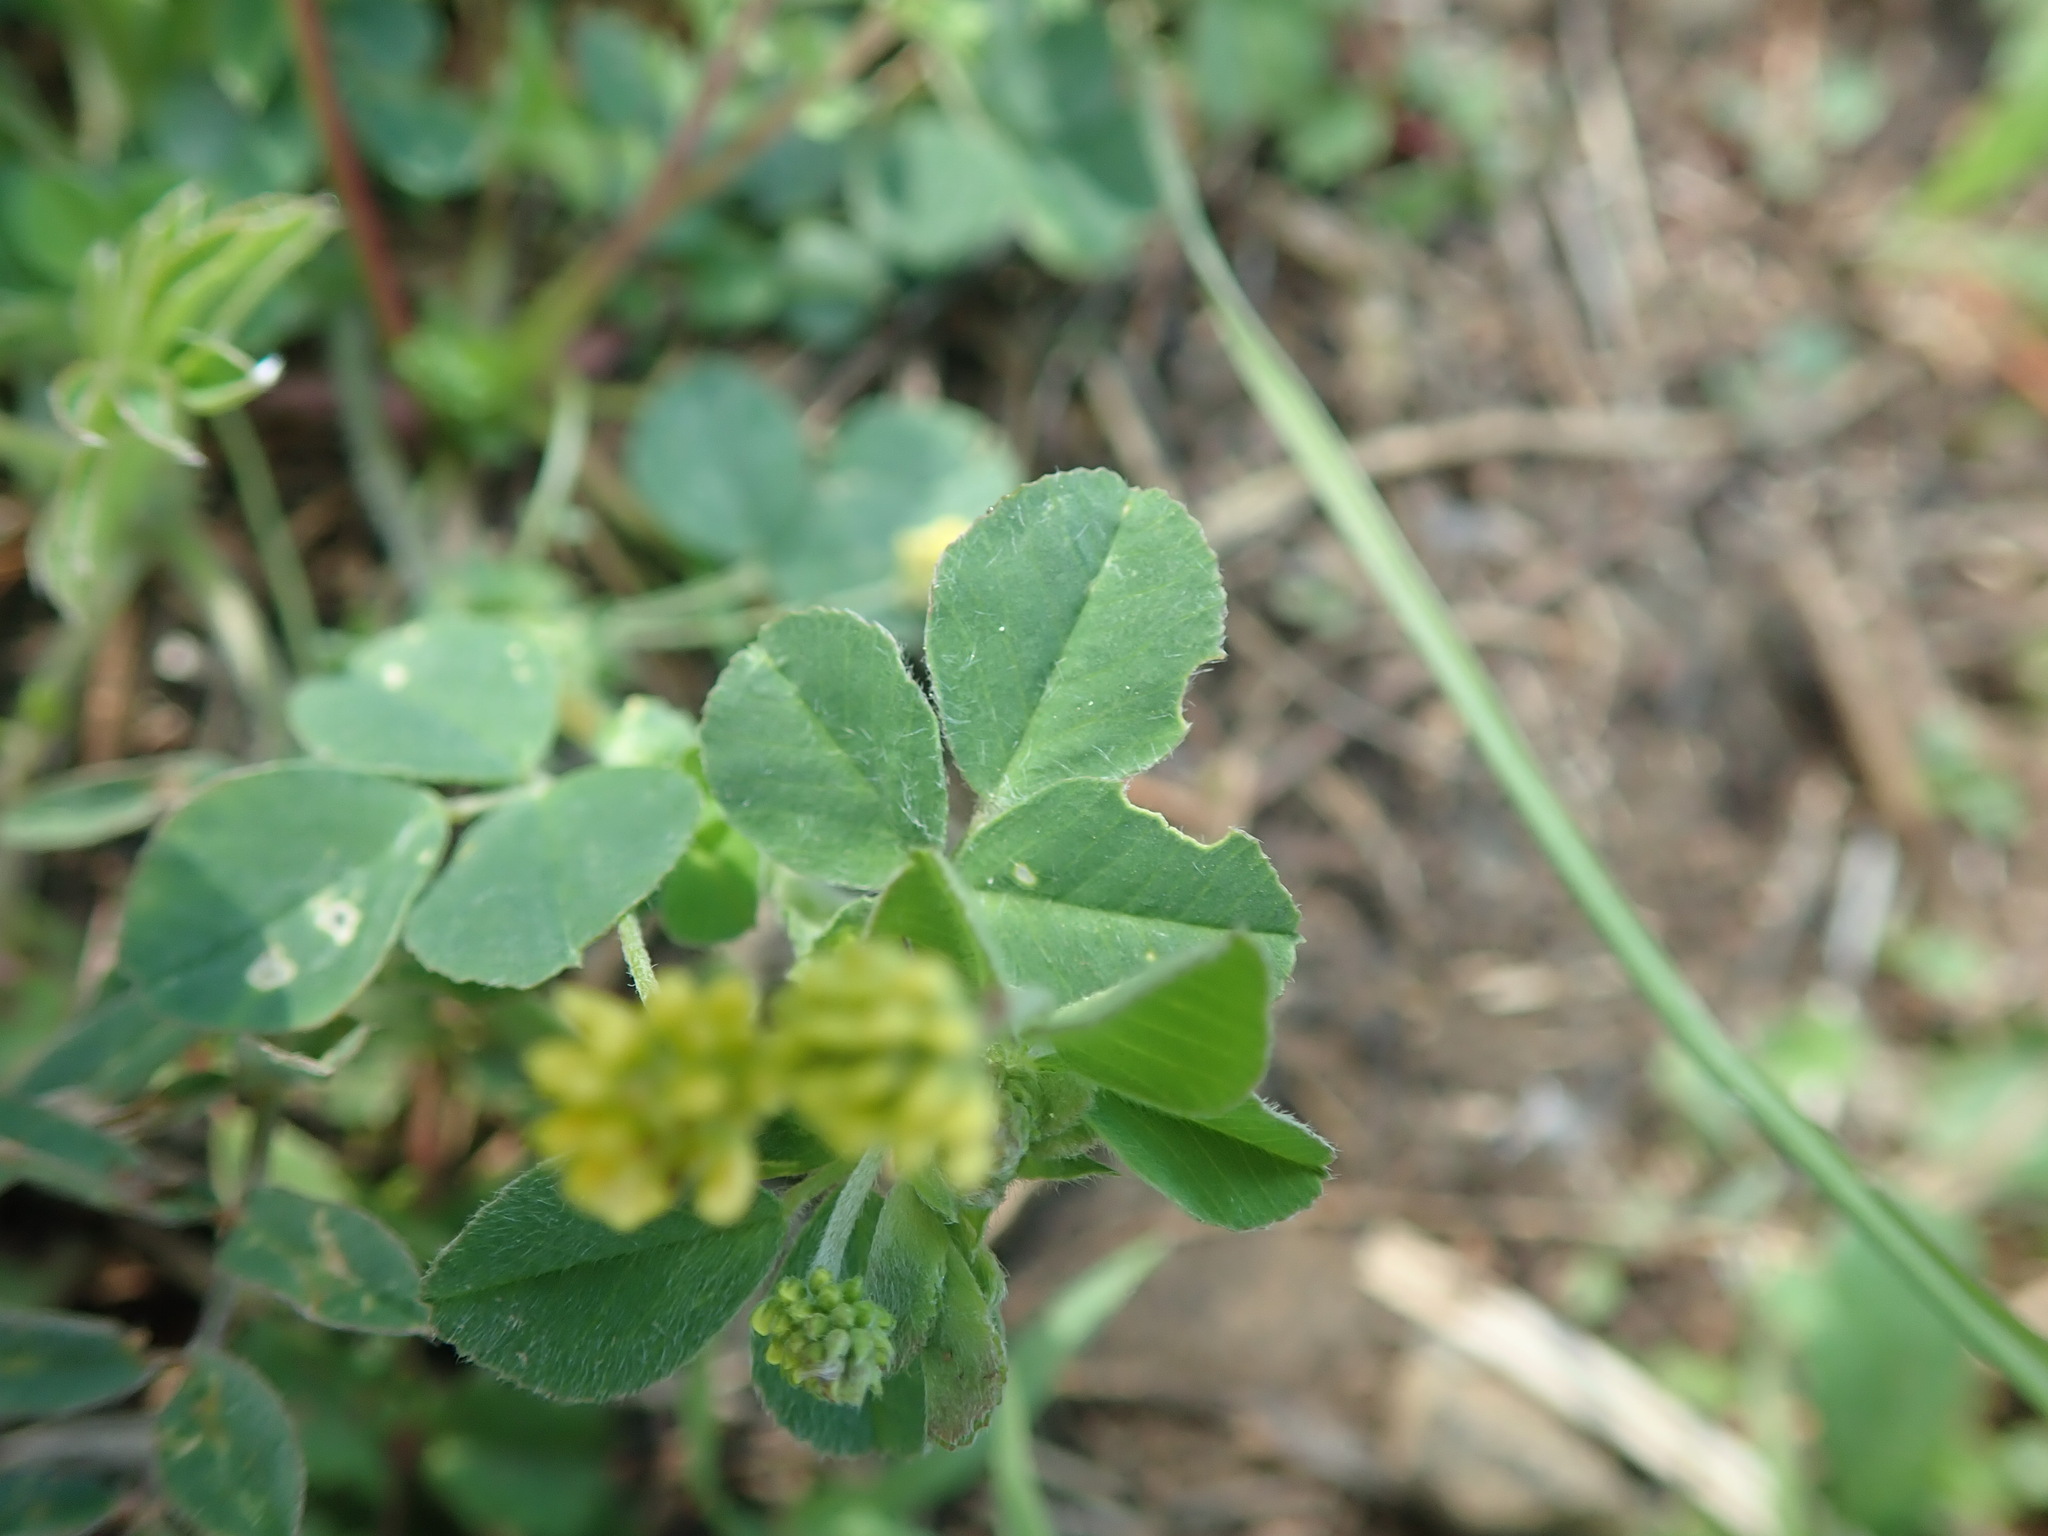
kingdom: Plantae
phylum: Tracheophyta
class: Magnoliopsida
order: Fabales
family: Fabaceae
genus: Medicago
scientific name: Medicago lupulina
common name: Black medick
